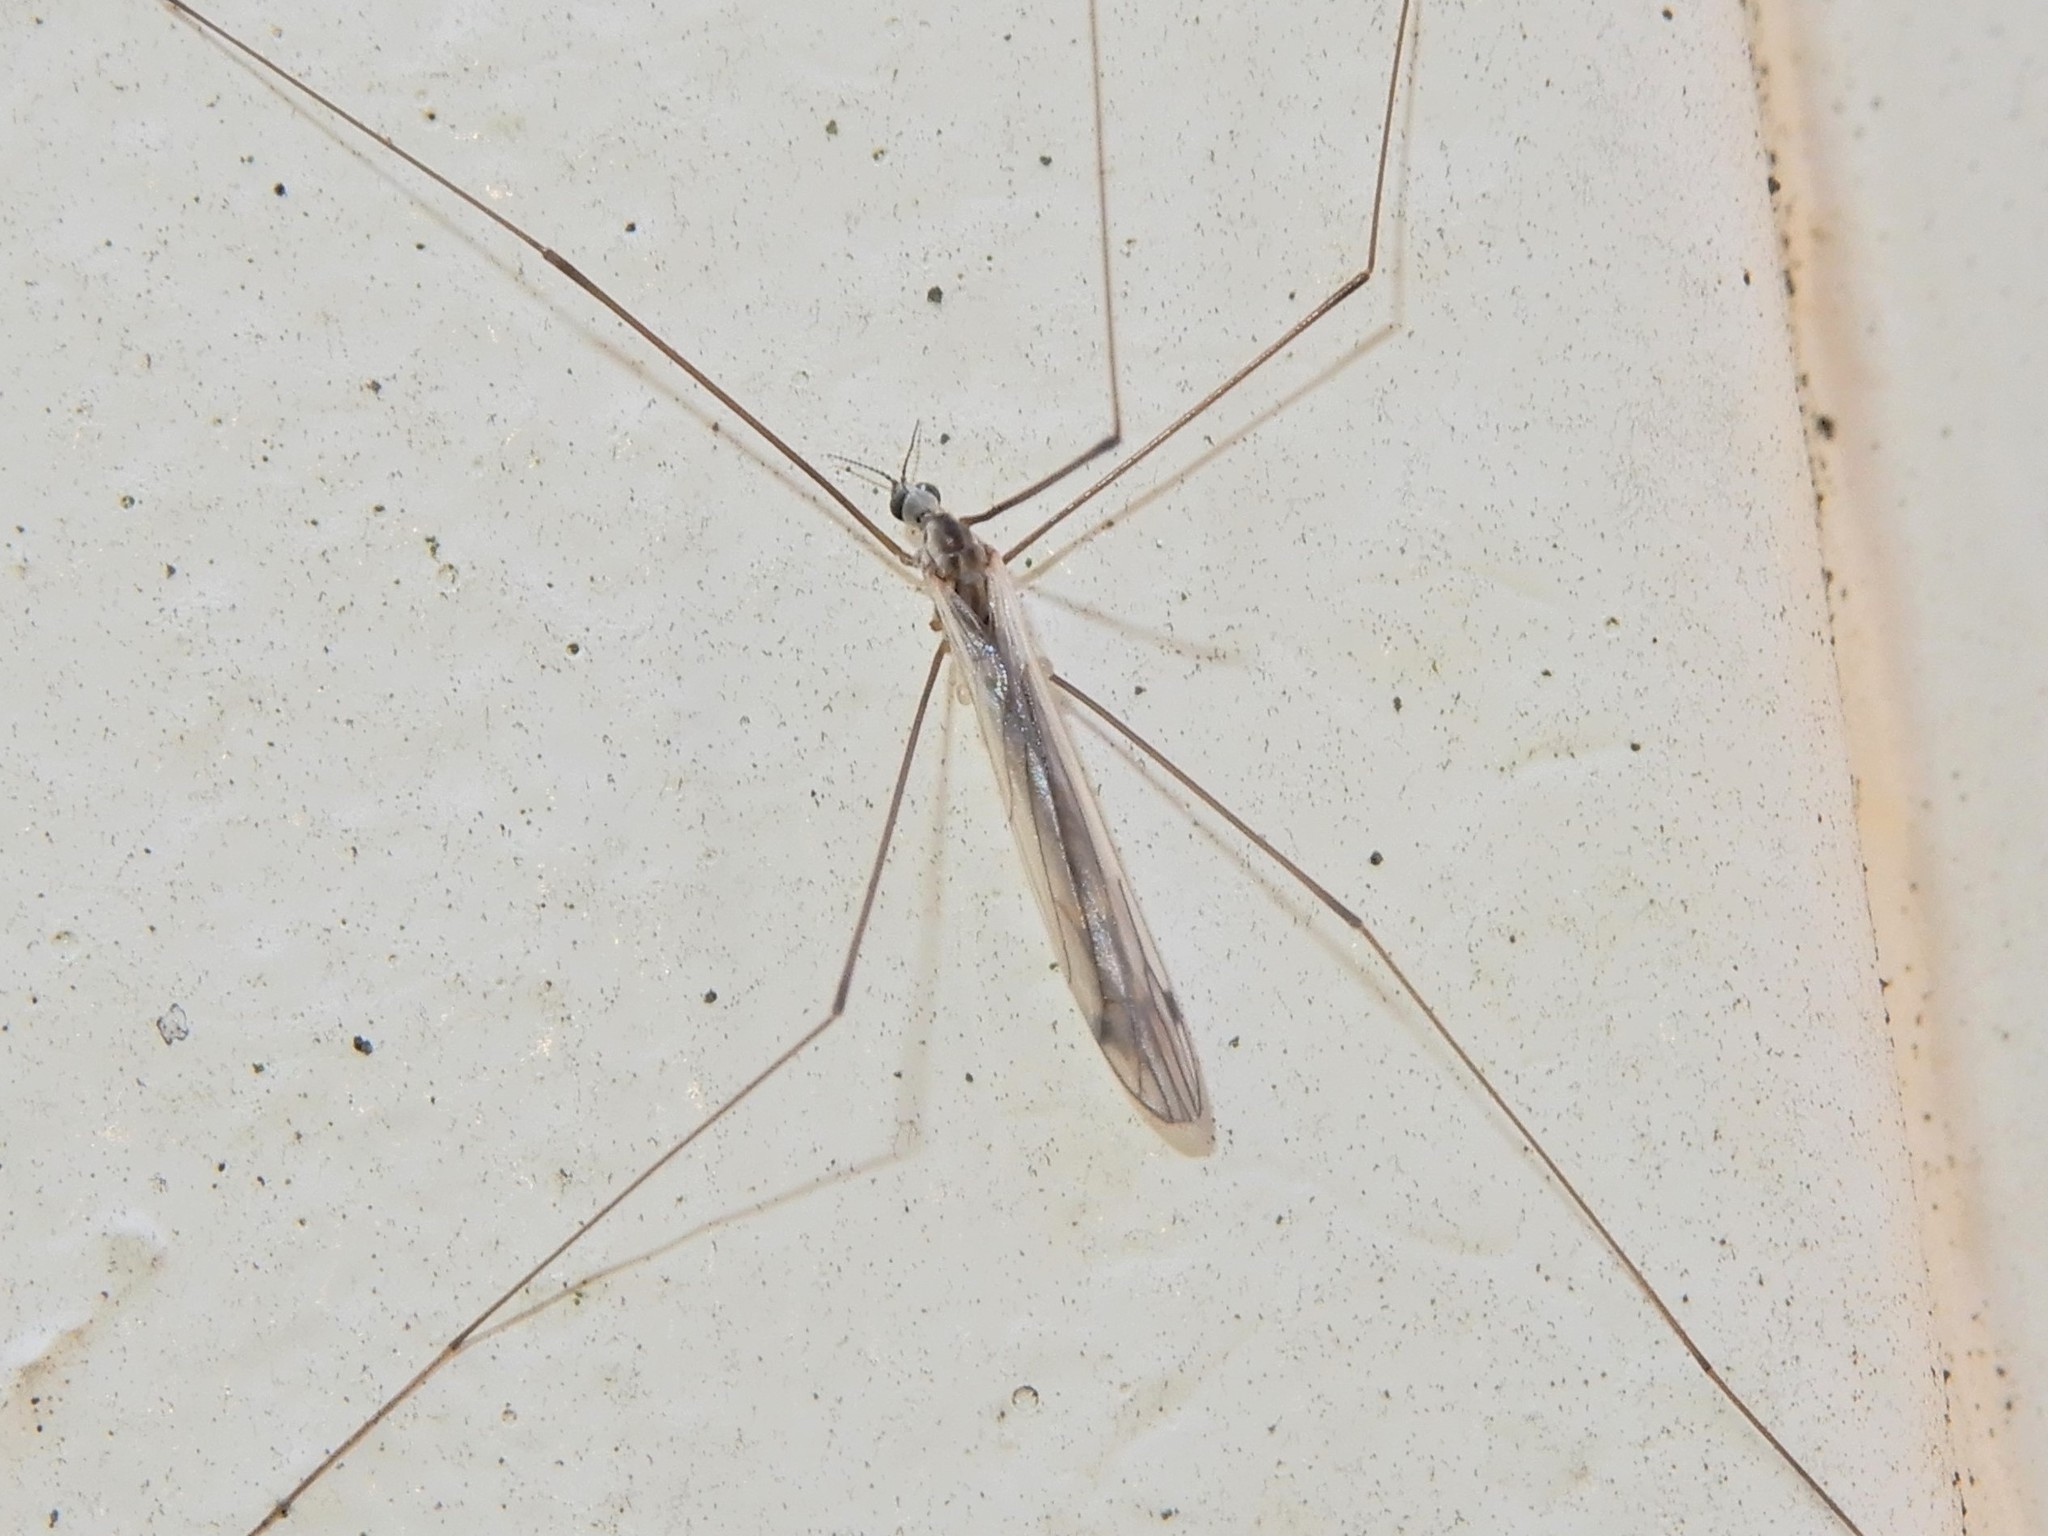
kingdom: Animalia
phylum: Arthropoda
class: Insecta
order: Diptera
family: Limoniidae
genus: Dicranomyia
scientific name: Dicranomyia aegrotans
